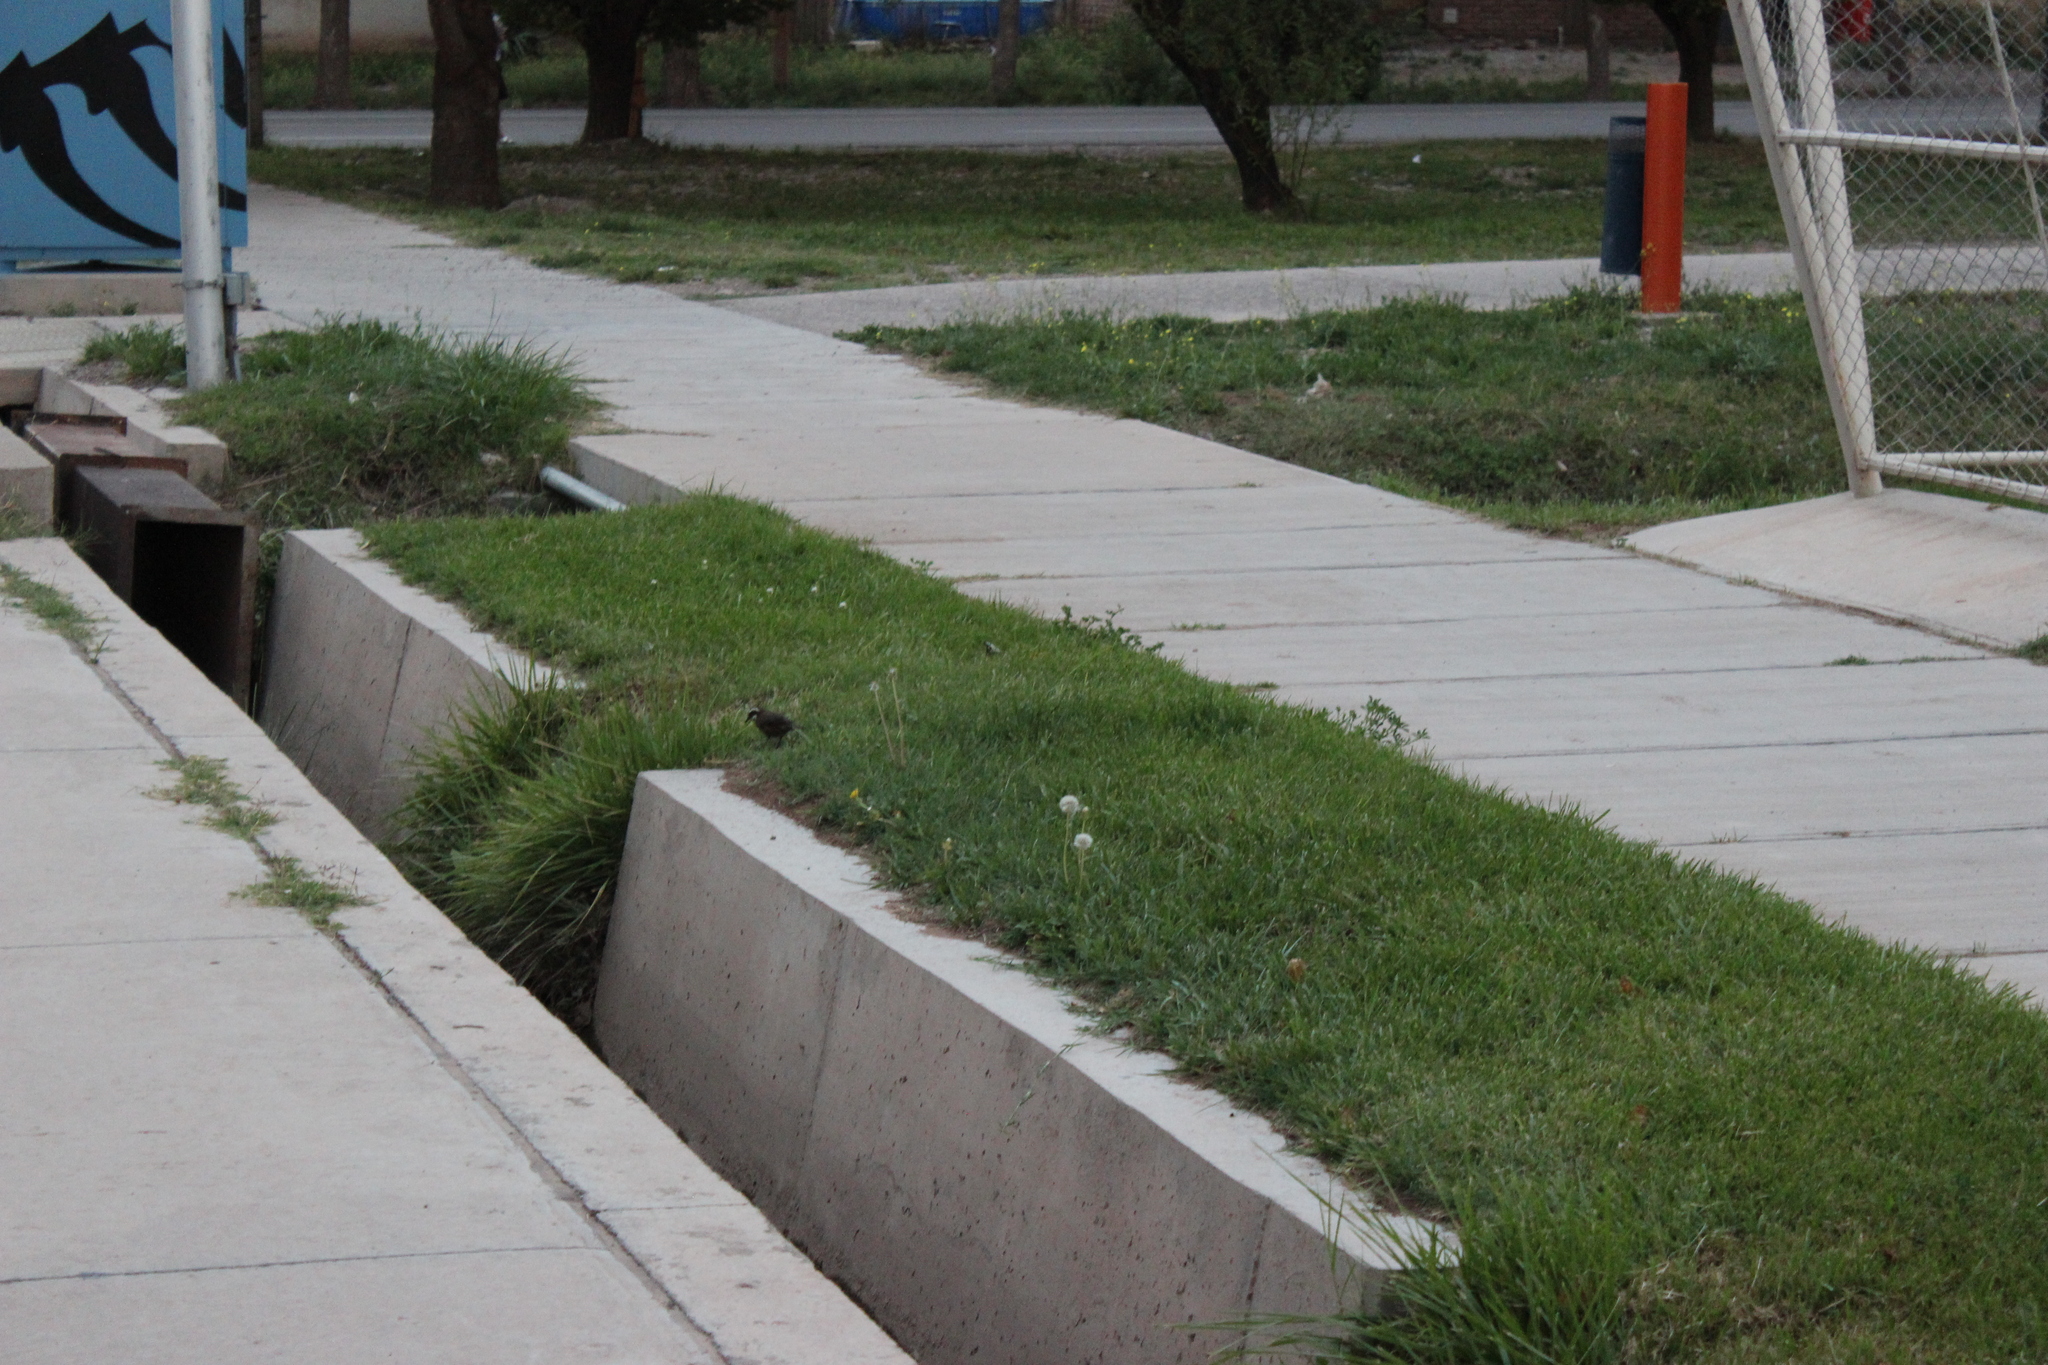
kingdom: Animalia
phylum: Chordata
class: Aves
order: Passeriformes
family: Furnariidae
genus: Cinclodes
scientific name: Cinclodes patagonicus
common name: Dark-bellied cinclodes
